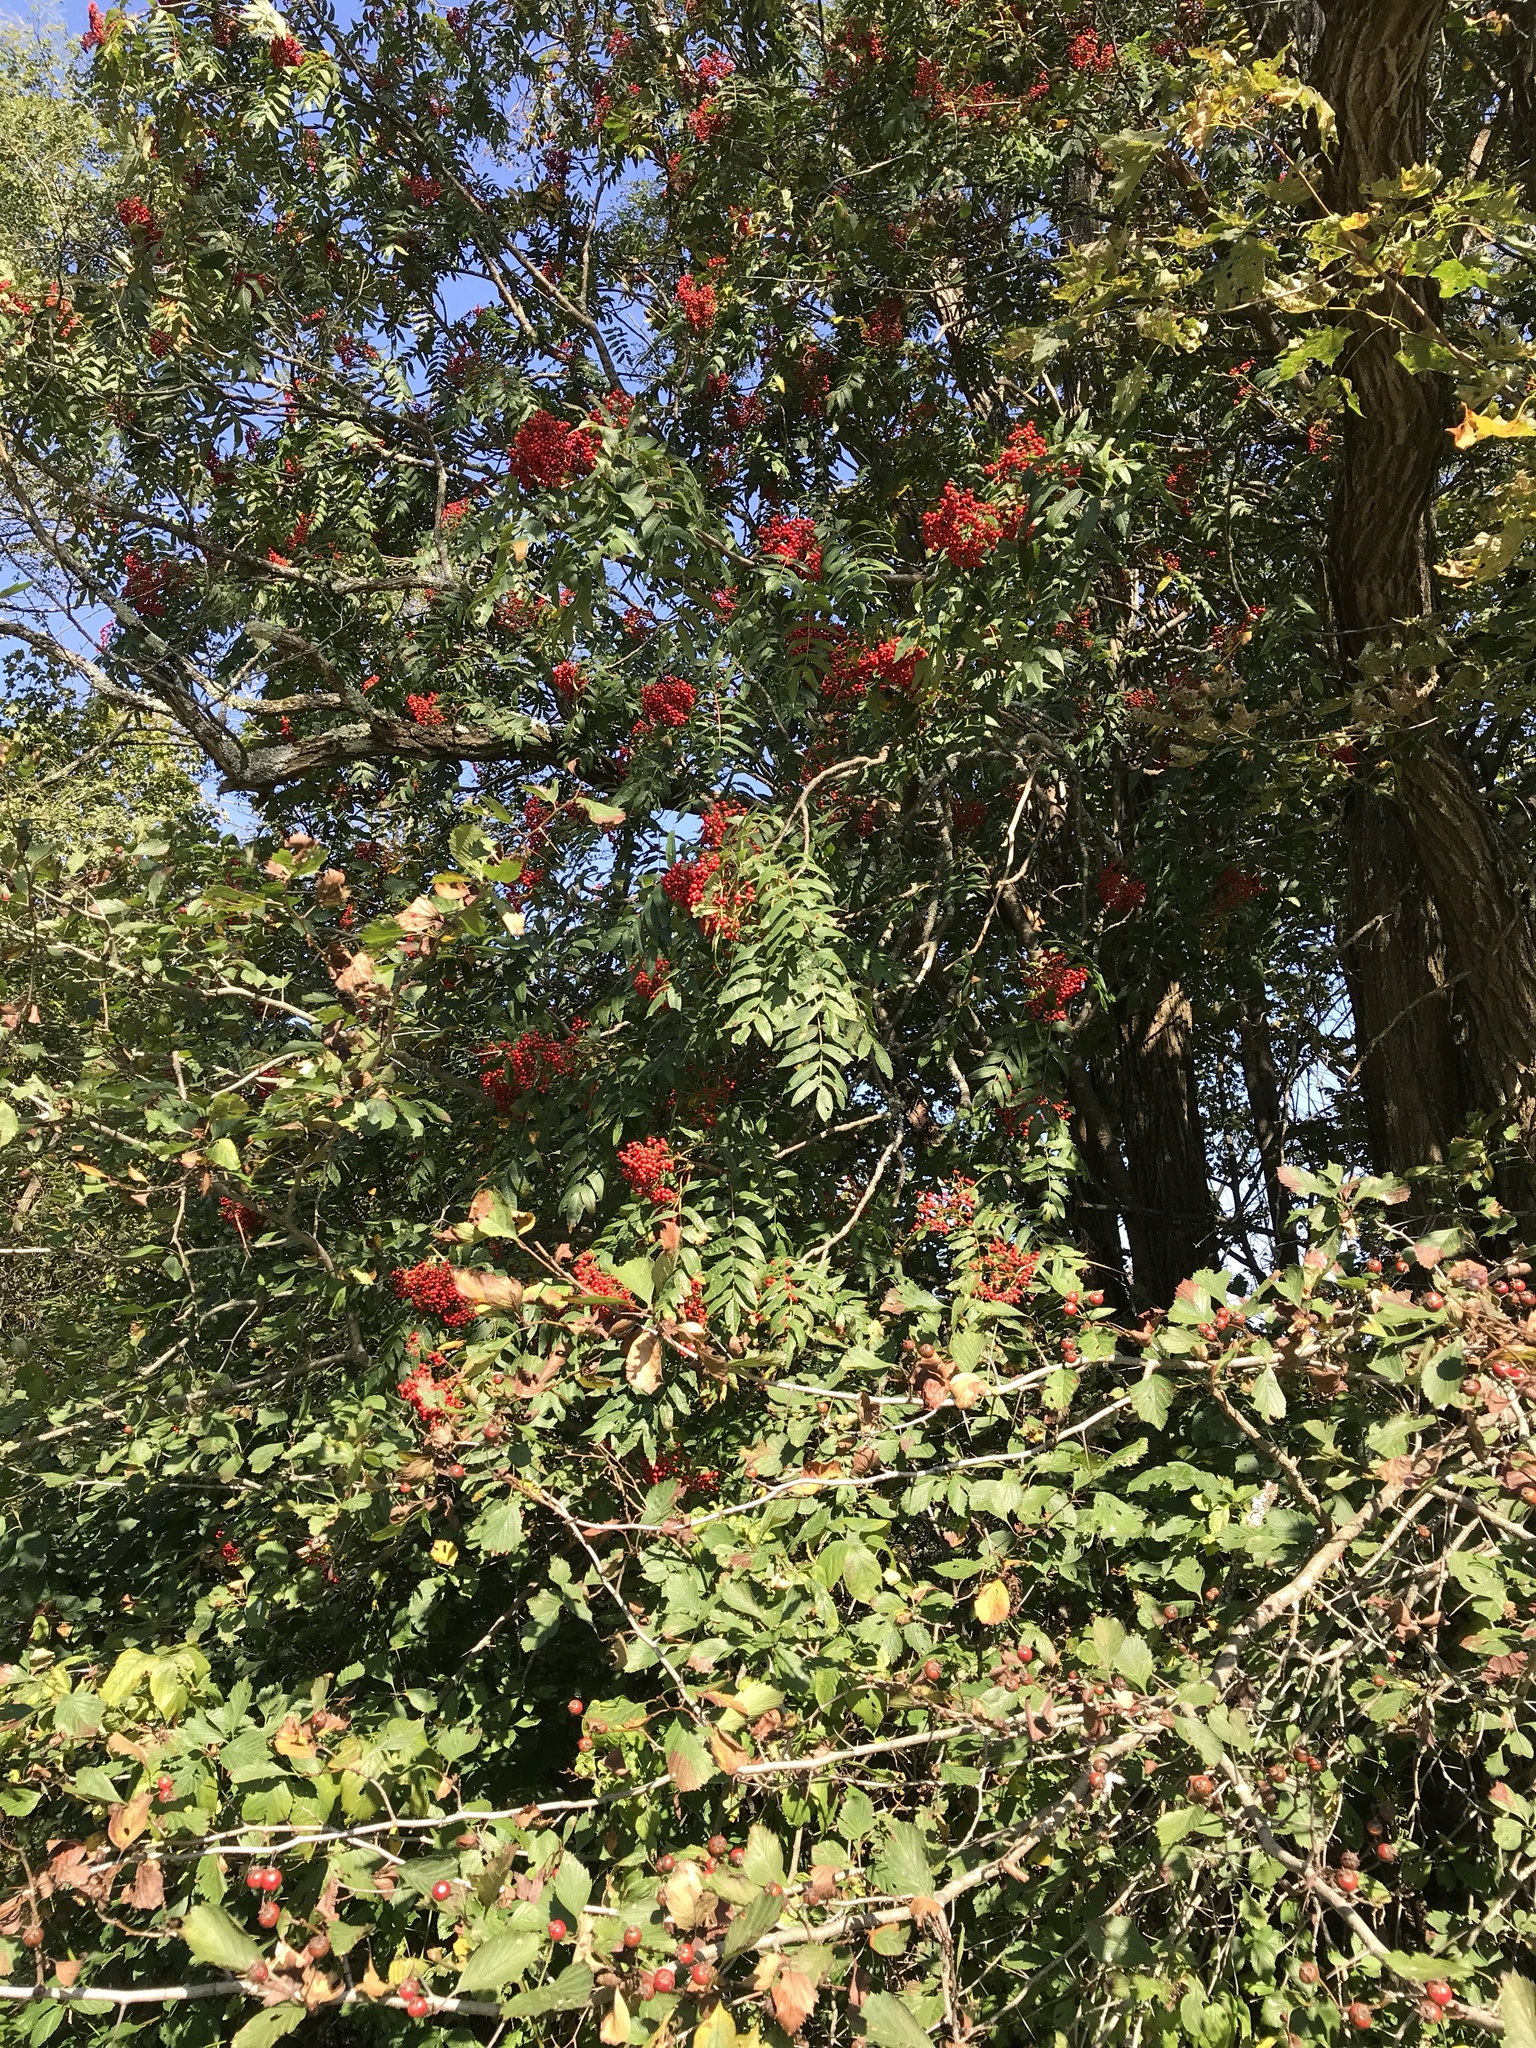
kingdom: Plantae
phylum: Tracheophyta
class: Magnoliopsida
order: Rosales
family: Rosaceae
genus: Sorbus
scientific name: Sorbus americana
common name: American mountain-ash
